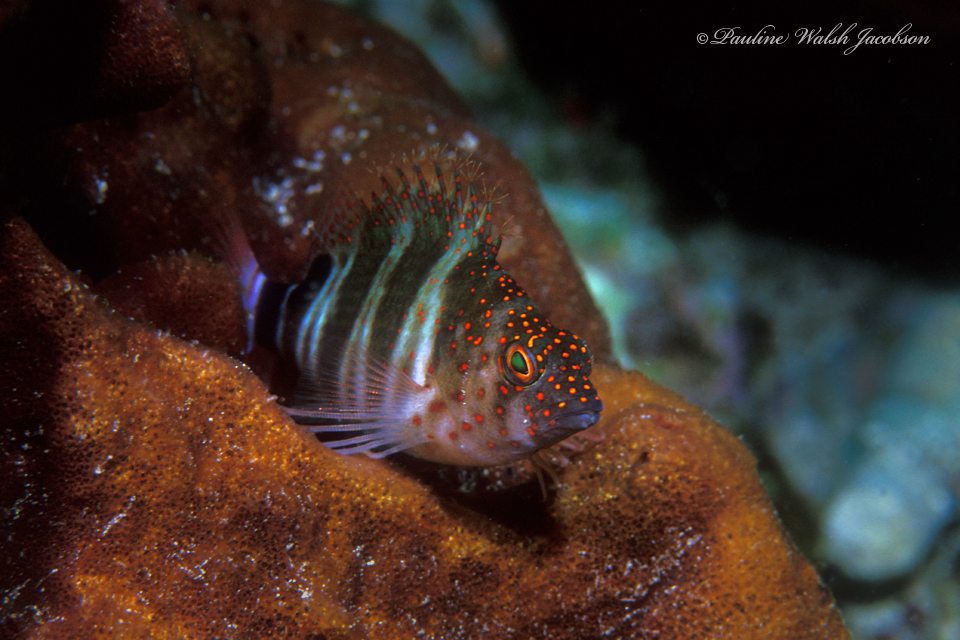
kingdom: Animalia
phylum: Chordata
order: Perciformes
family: Cirrhitidae
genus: Amblycirrhitus
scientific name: Amblycirrhitus pinos
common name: Redspotted hawkfish
